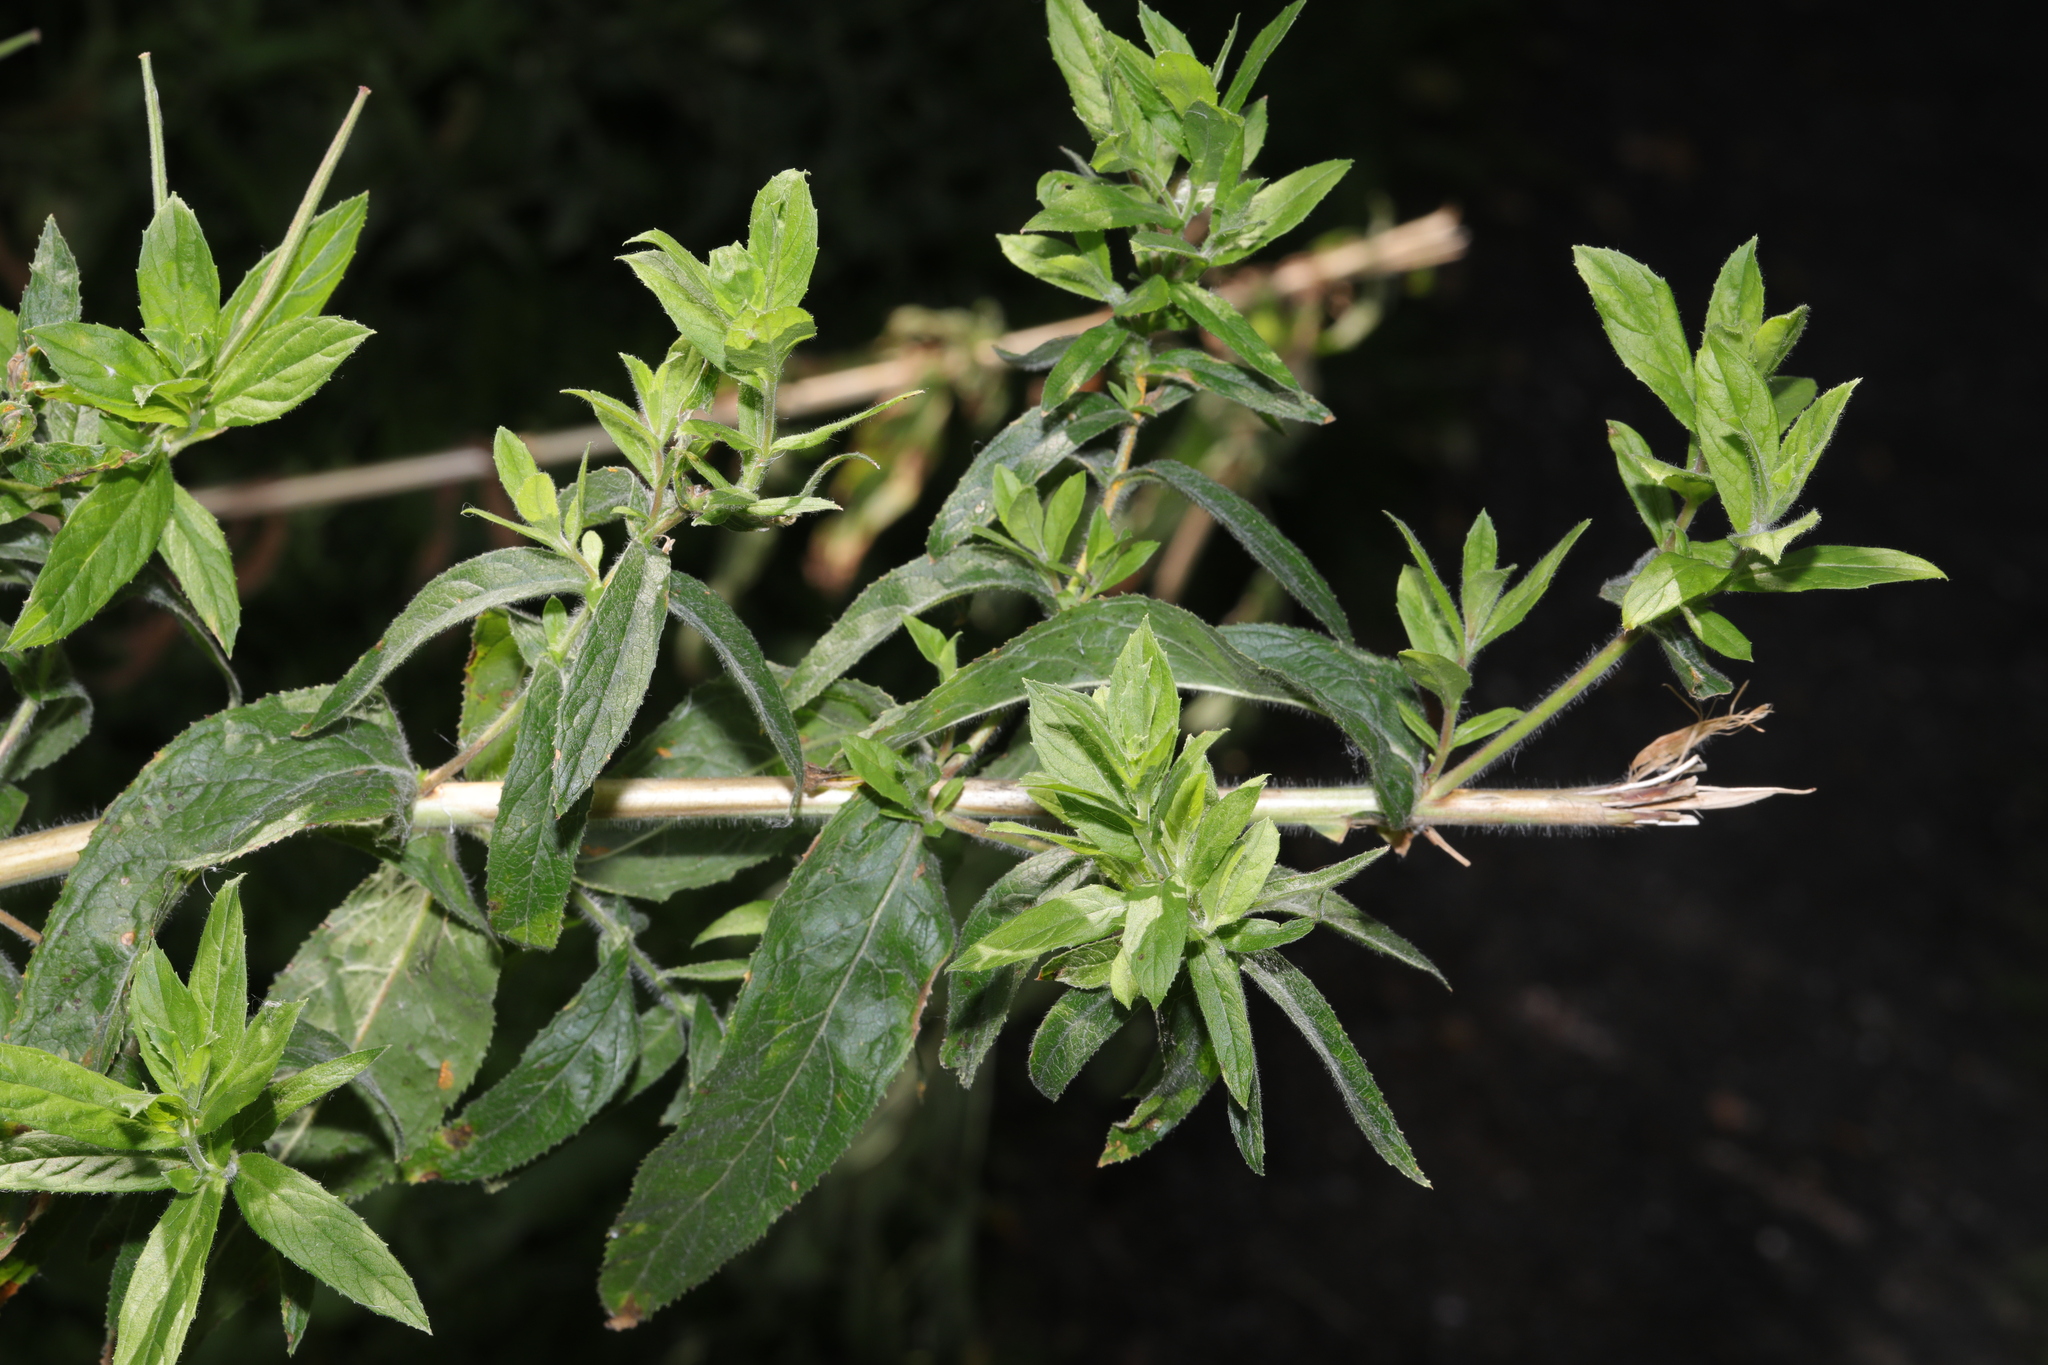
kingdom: Plantae
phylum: Tracheophyta
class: Magnoliopsida
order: Myrtales
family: Onagraceae
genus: Epilobium
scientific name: Epilobium hirsutum
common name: Great willowherb
